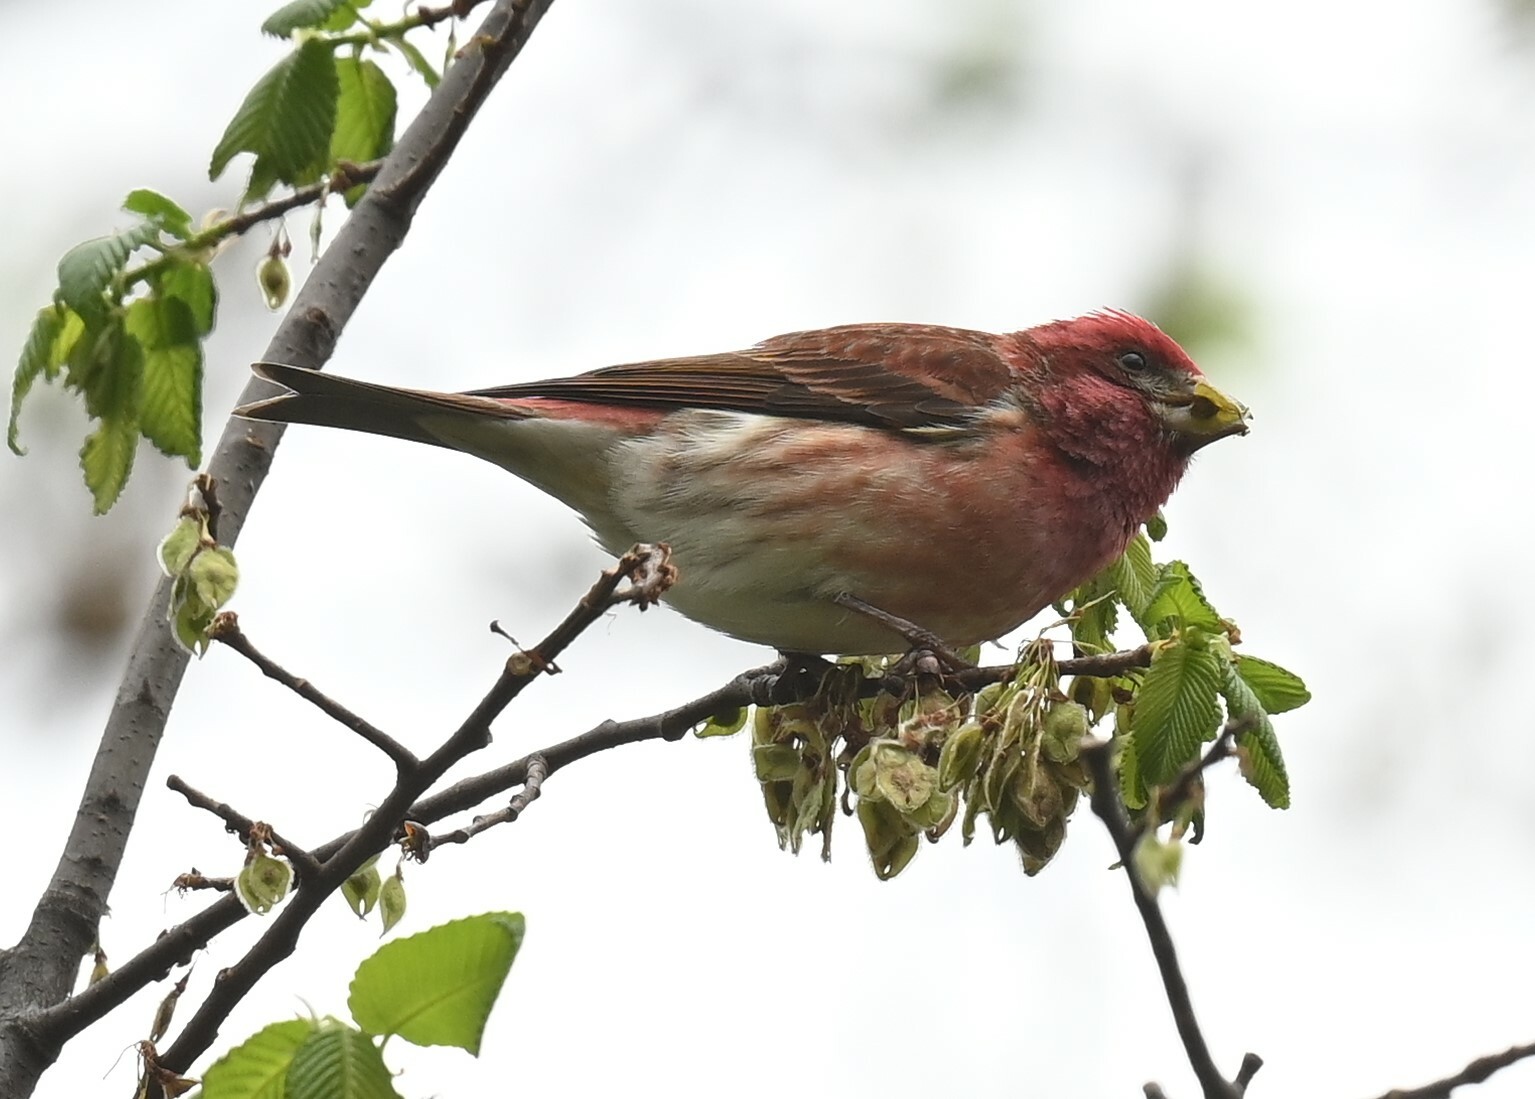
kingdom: Animalia
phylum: Chordata
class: Aves
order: Passeriformes
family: Fringillidae
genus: Haemorhous
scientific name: Haemorhous purpureus
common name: Purple finch
